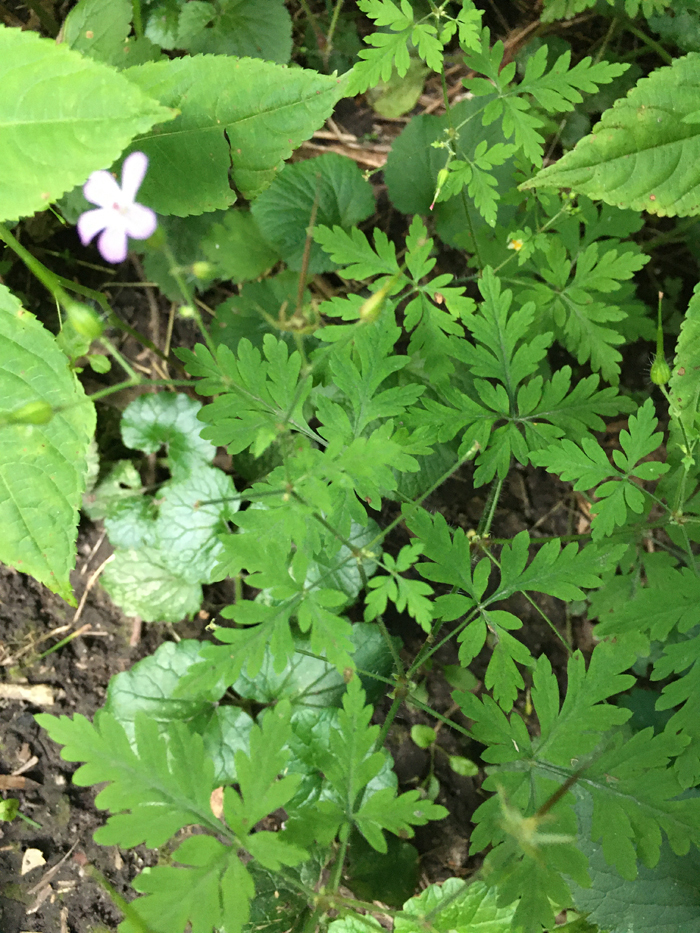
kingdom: Plantae
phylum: Tracheophyta
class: Magnoliopsida
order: Geraniales
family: Geraniaceae
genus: Geranium
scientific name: Geranium robertianum
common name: Herb-robert
